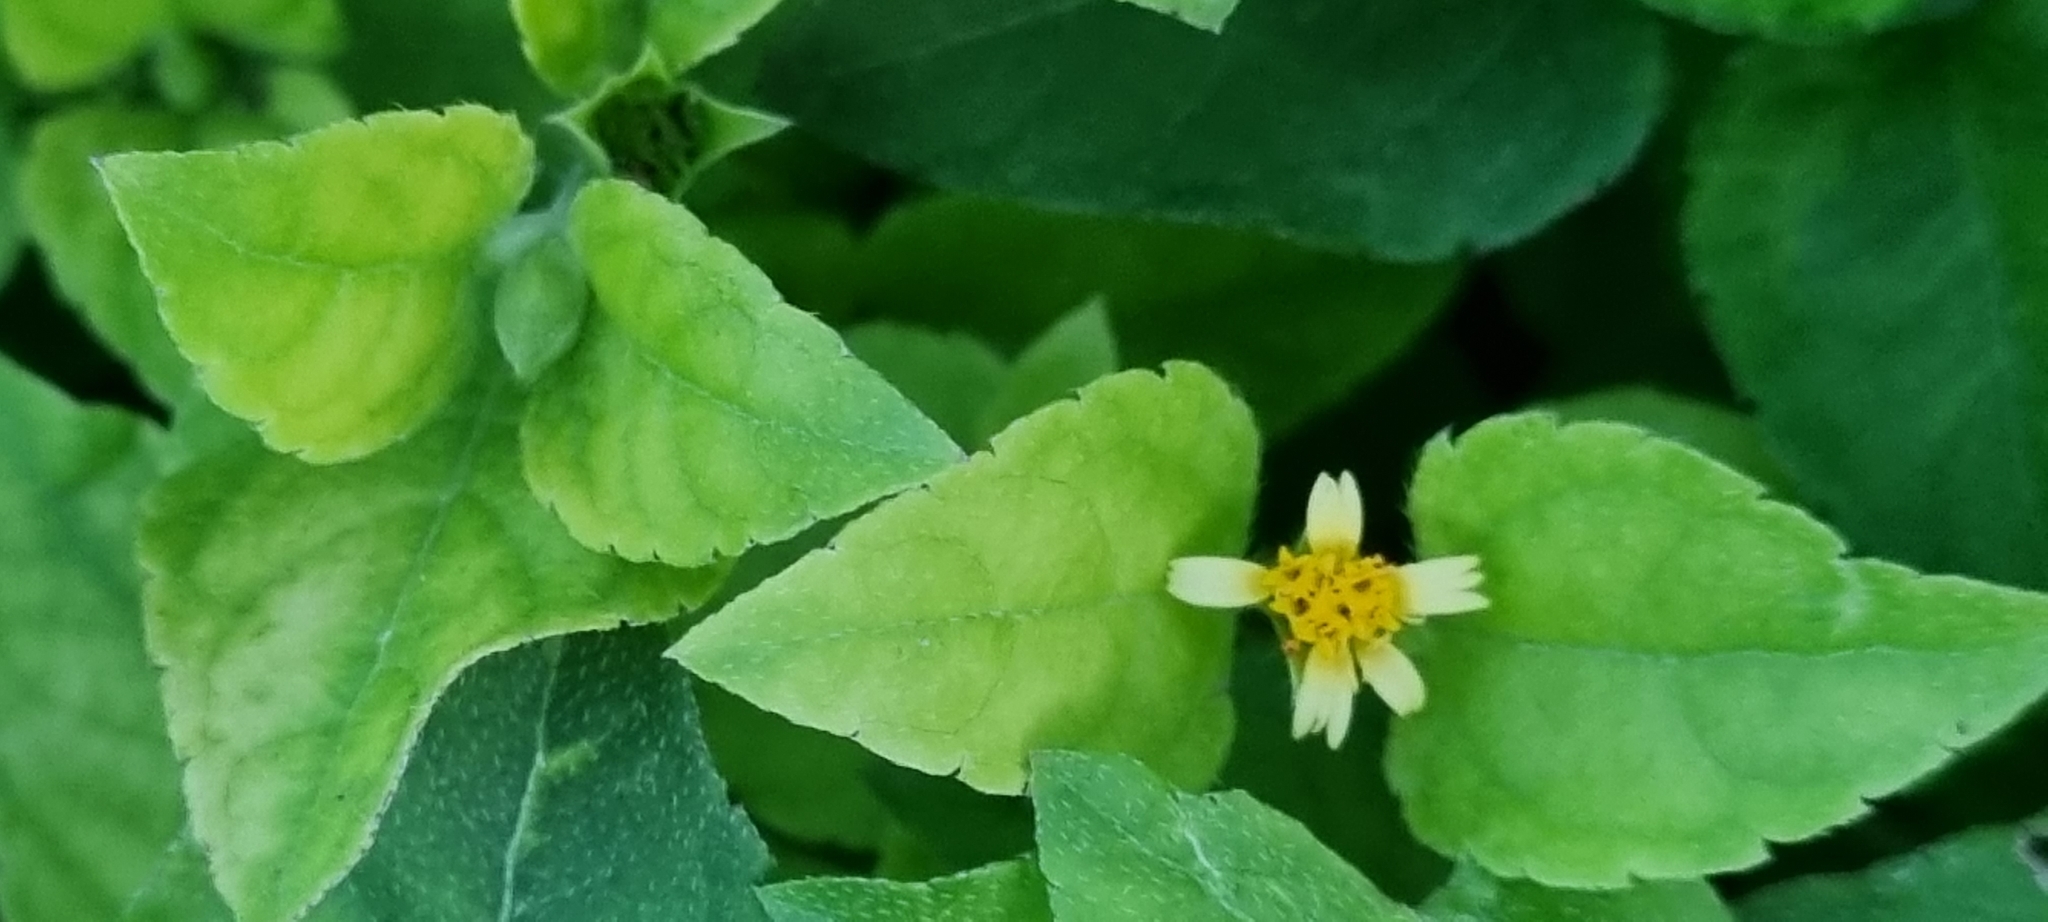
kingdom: Plantae
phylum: Tracheophyta
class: Magnoliopsida
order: Asterales
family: Asteraceae
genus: Calyptocarpus
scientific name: Calyptocarpus vialis
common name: Straggler daisy
